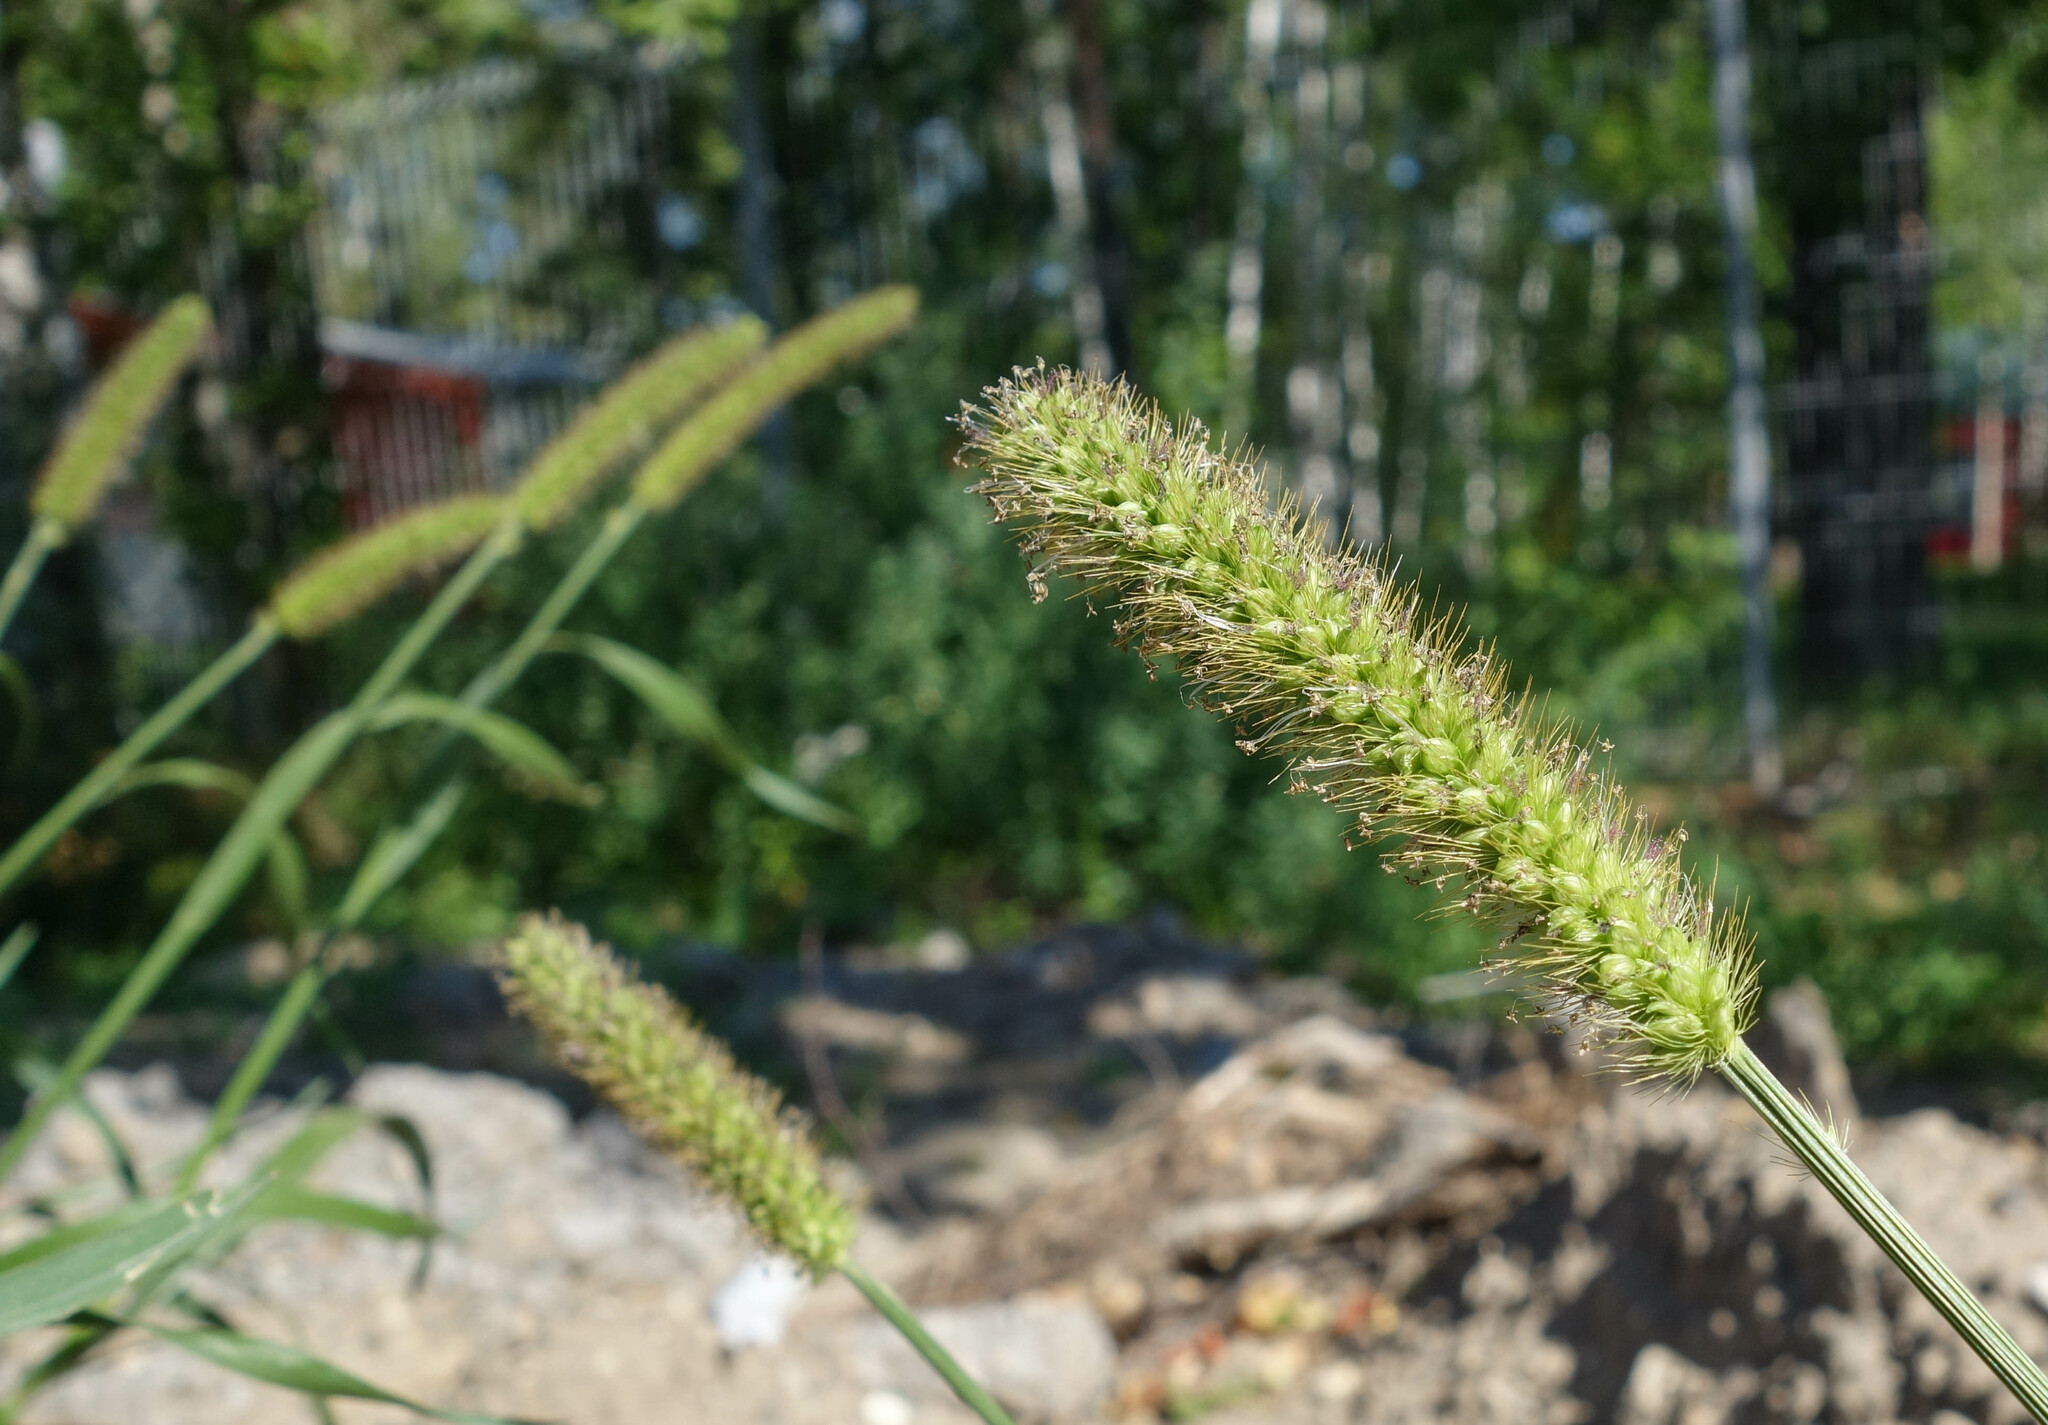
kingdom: Plantae
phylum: Tracheophyta
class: Liliopsida
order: Poales
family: Poaceae
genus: Setaria
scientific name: Setaria viridis
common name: Green bristlegrass
